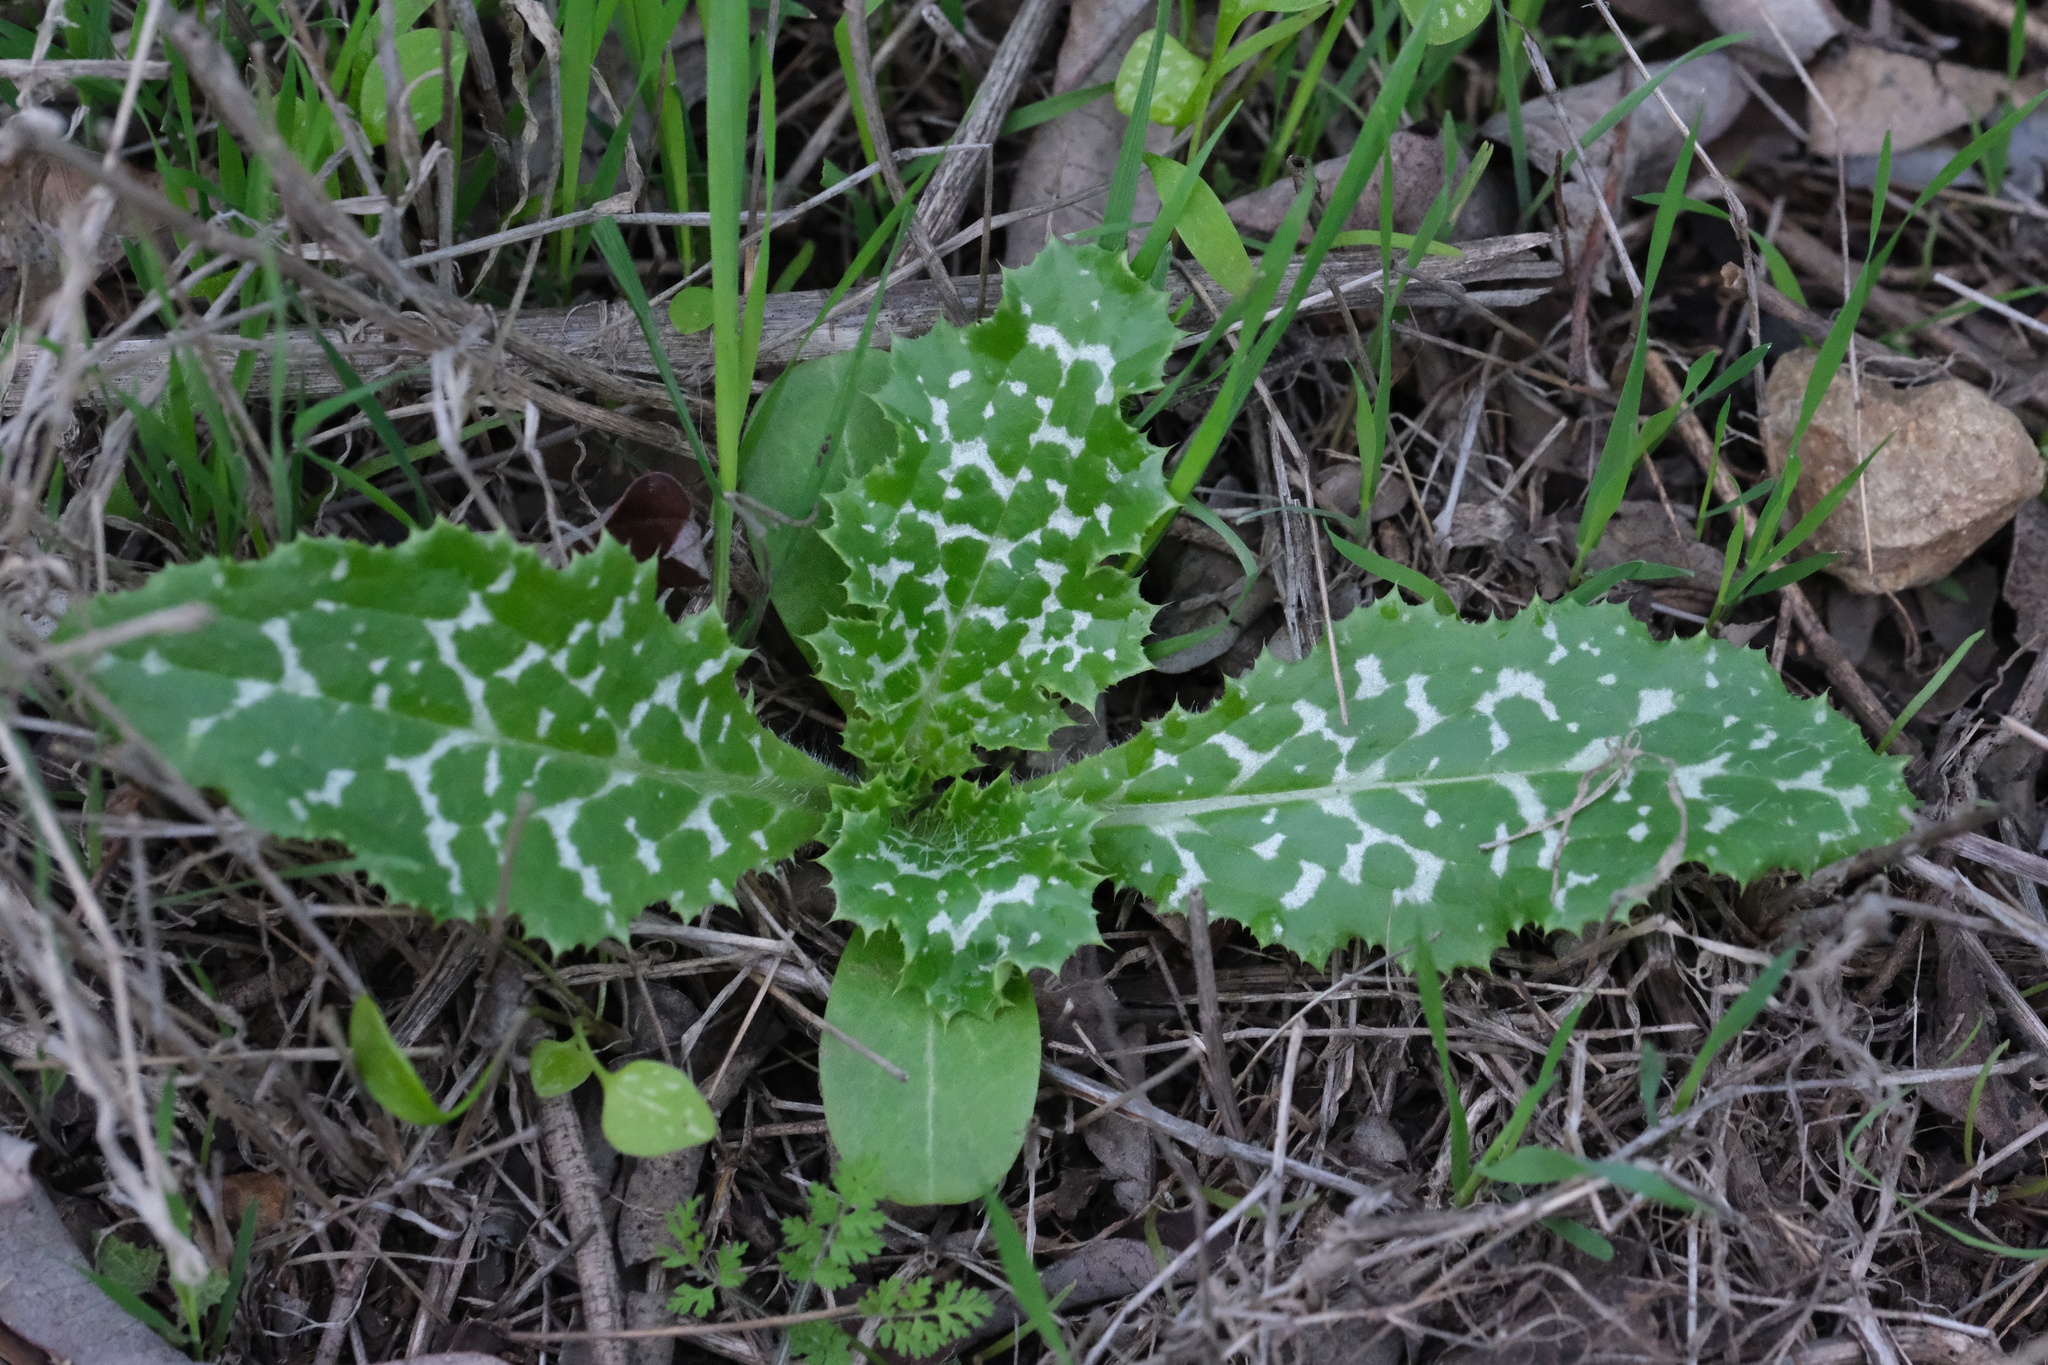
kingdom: Plantae
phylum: Tracheophyta
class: Magnoliopsida
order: Asterales
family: Asteraceae
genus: Silybum
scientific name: Silybum marianum
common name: Milk thistle
